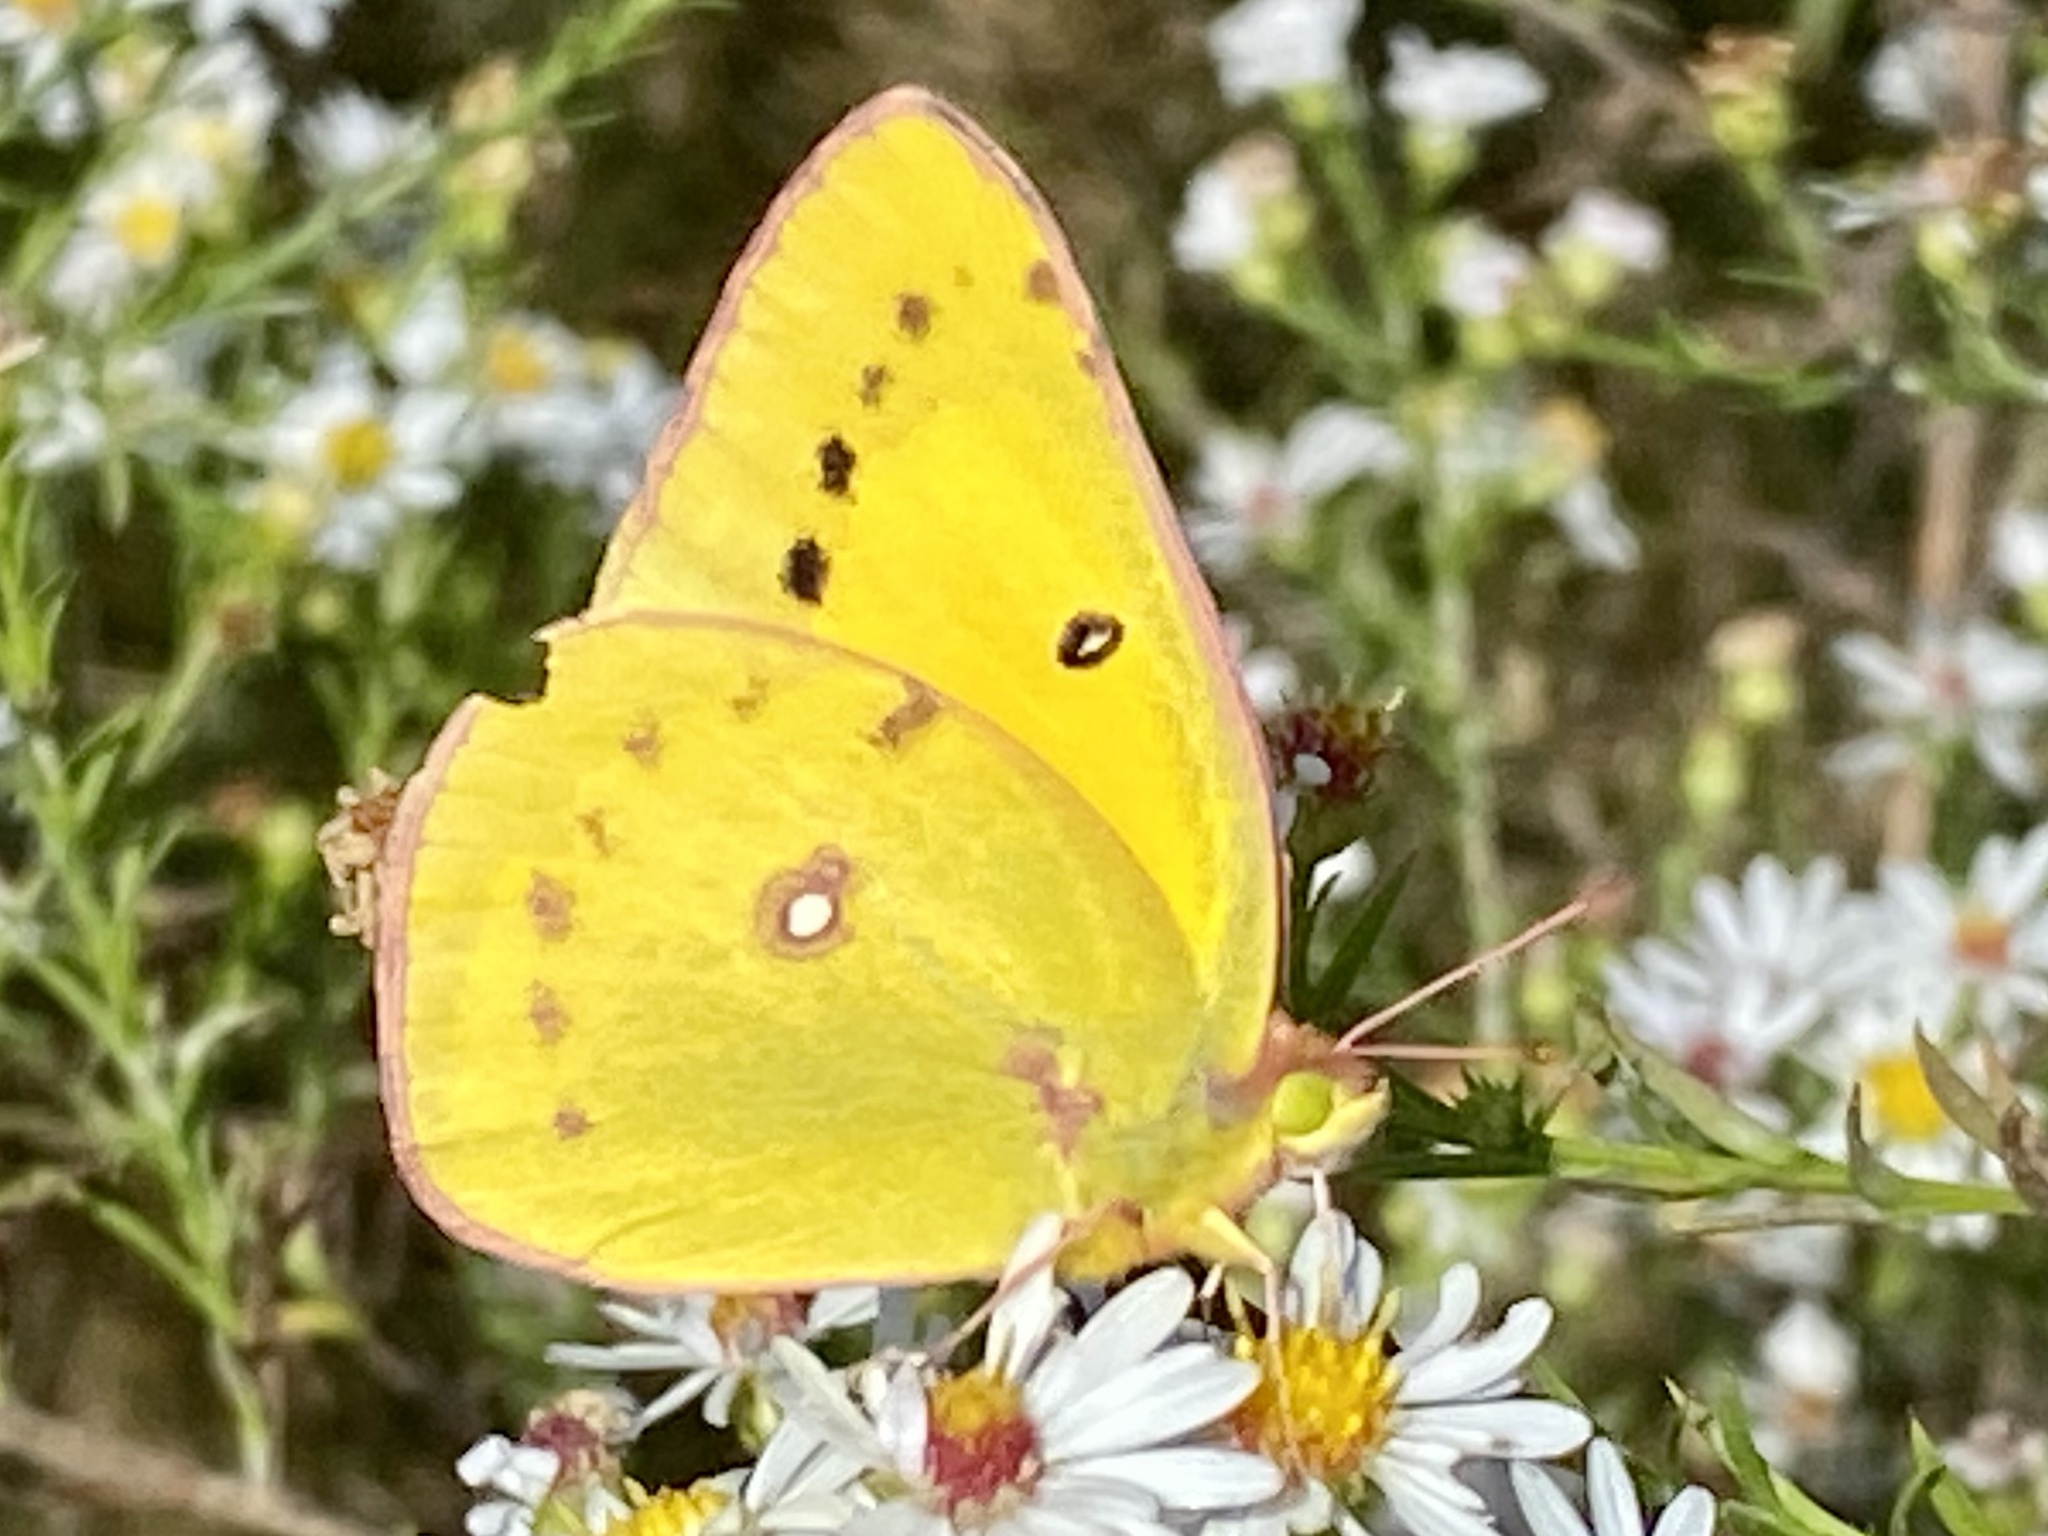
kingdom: Animalia
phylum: Arthropoda
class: Insecta
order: Lepidoptera
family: Pieridae
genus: Colias
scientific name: Colias eurytheme
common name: Alfalfa butterfly
